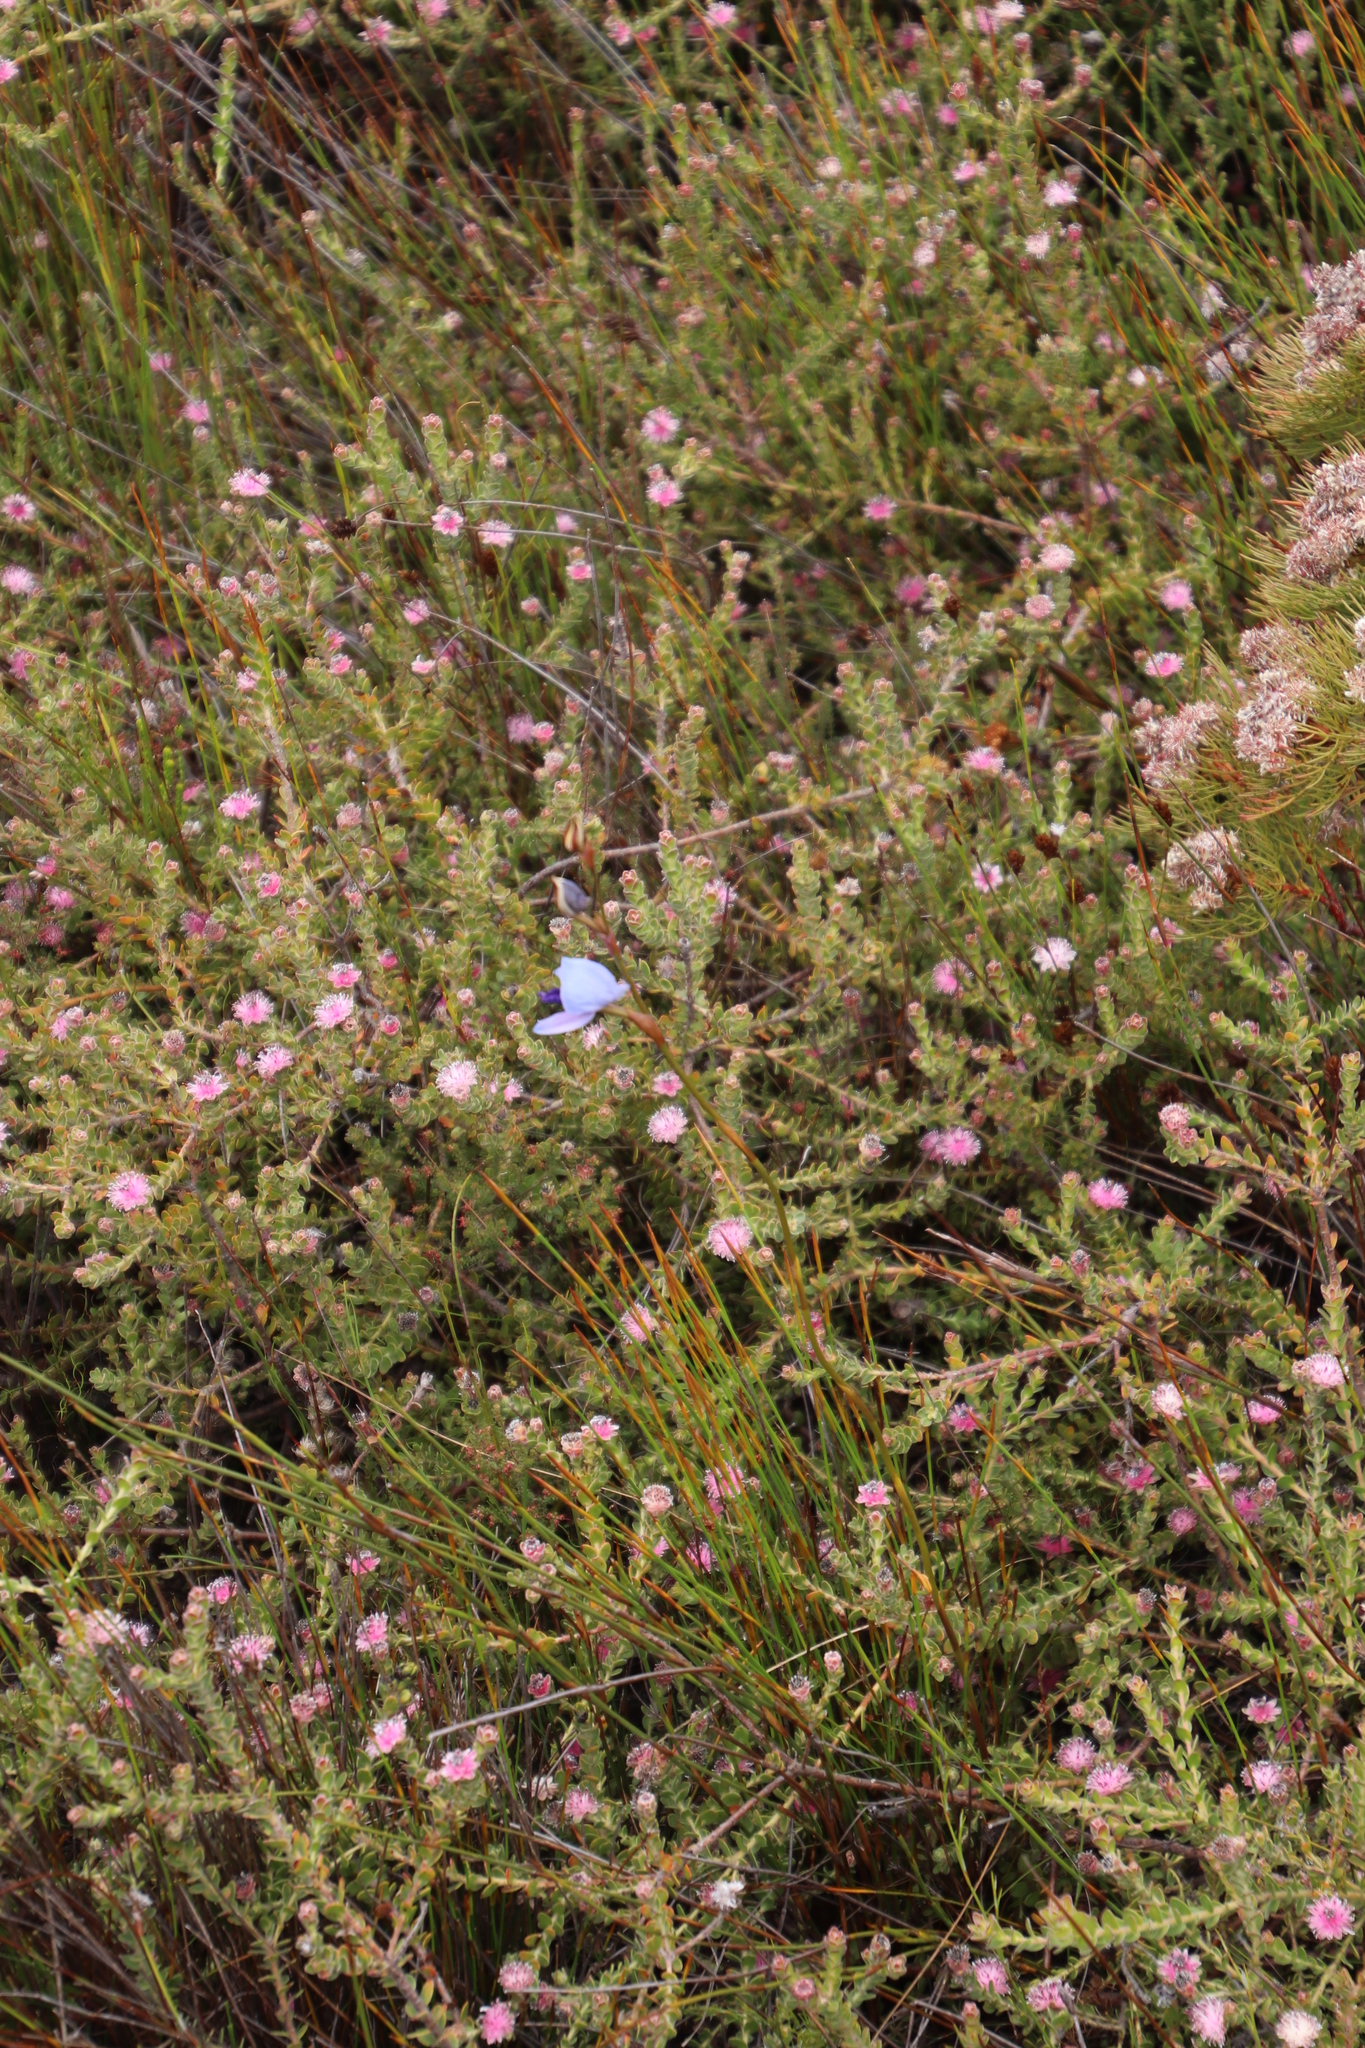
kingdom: Plantae
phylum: Tracheophyta
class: Liliopsida
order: Asparagales
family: Orchidaceae
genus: Disa
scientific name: Disa purpurascens
